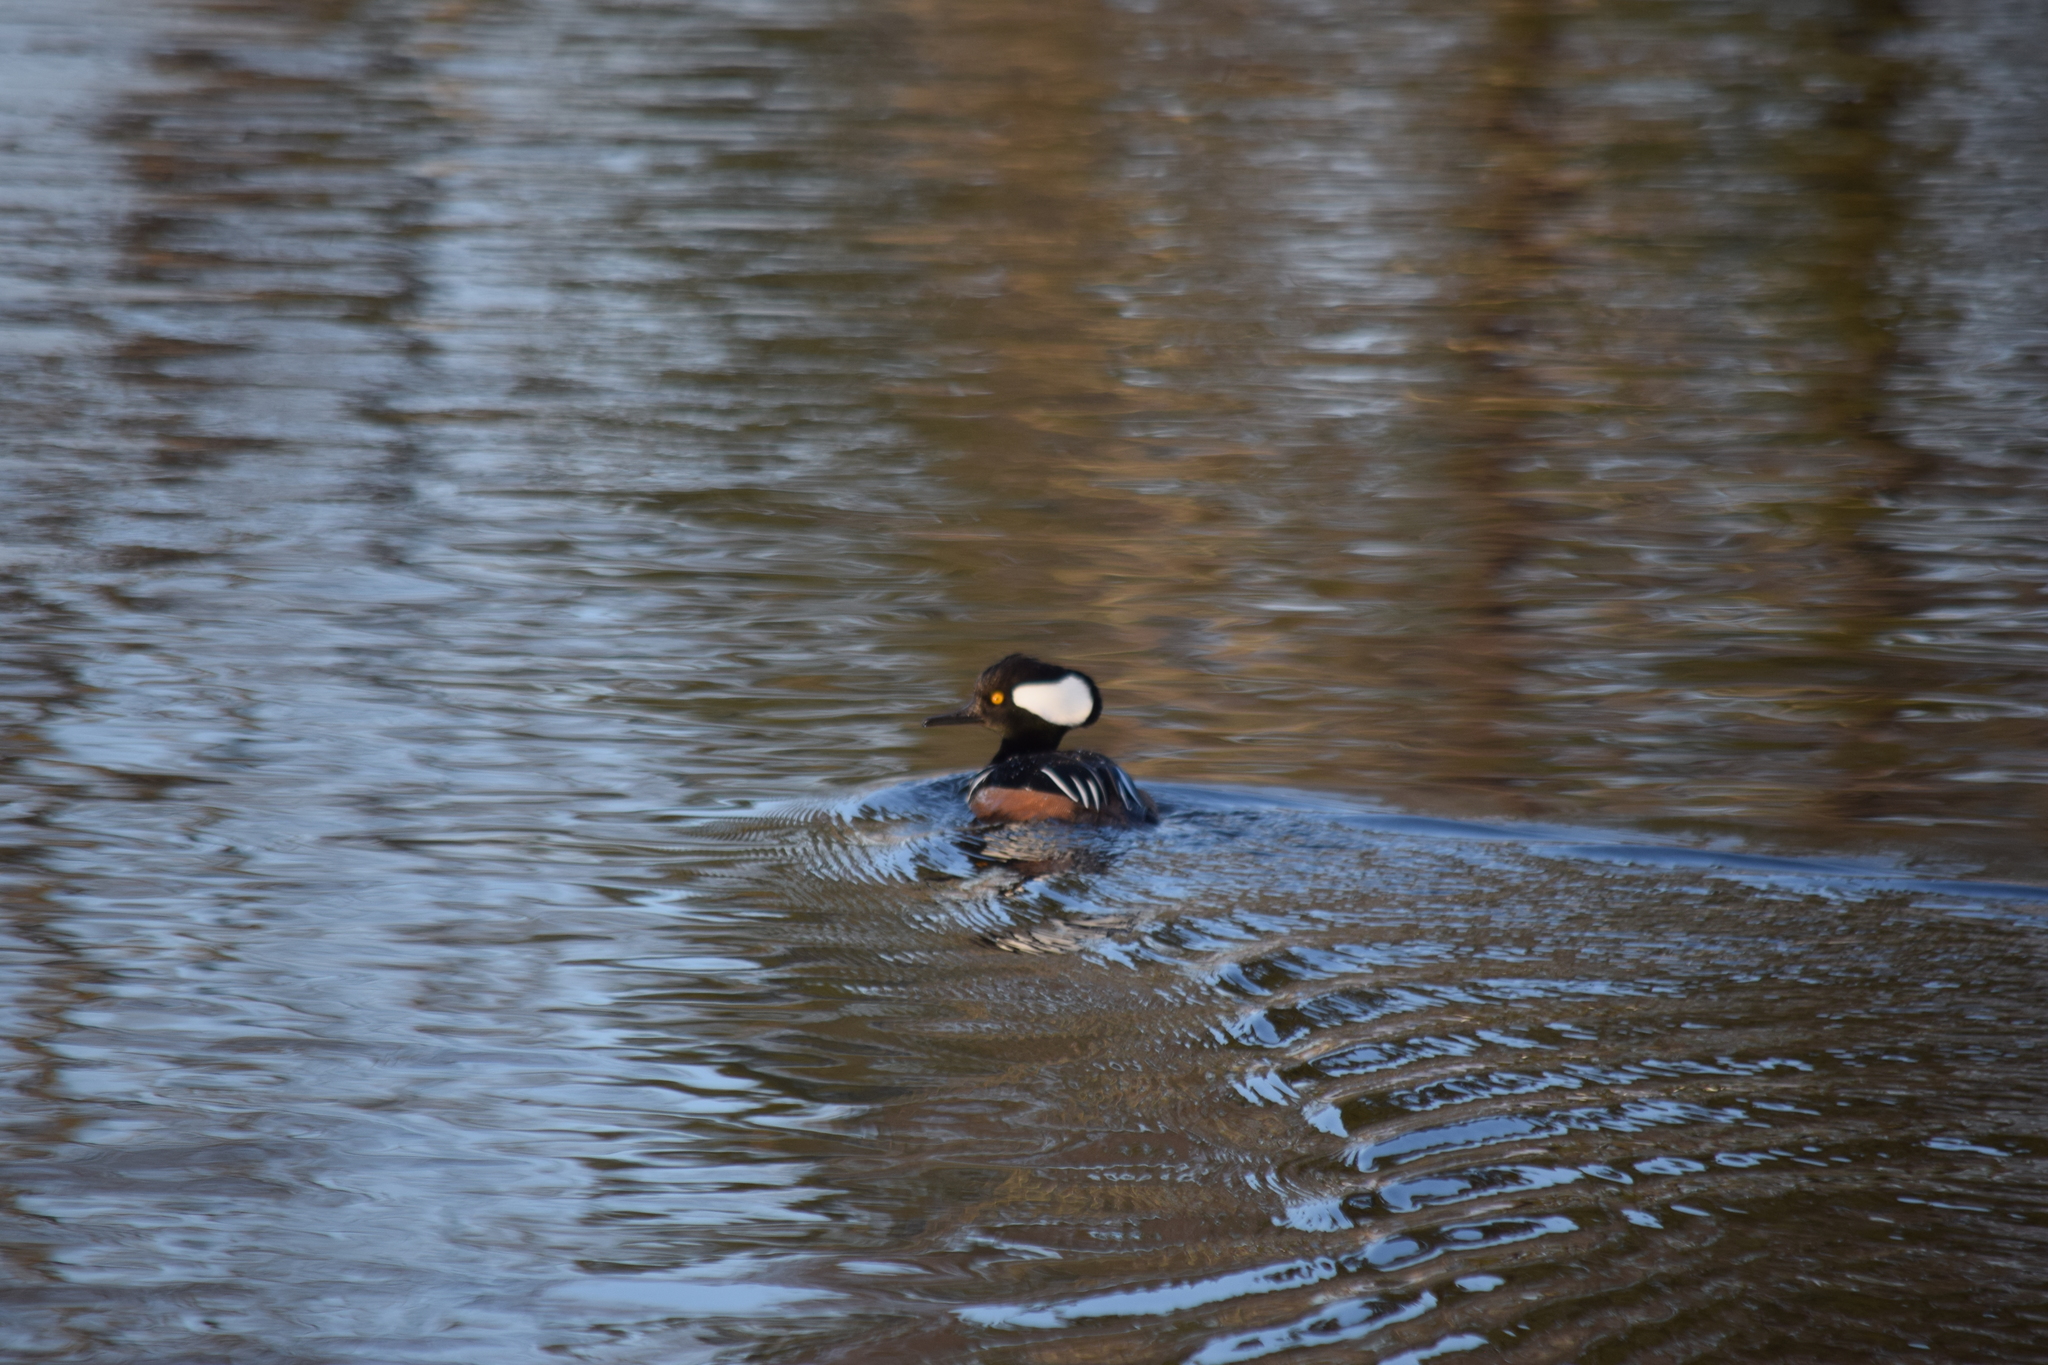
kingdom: Animalia
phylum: Chordata
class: Aves
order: Anseriformes
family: Anatidae
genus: Lophodytes
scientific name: Lophodytes cucullatus
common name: Hooded merganser
